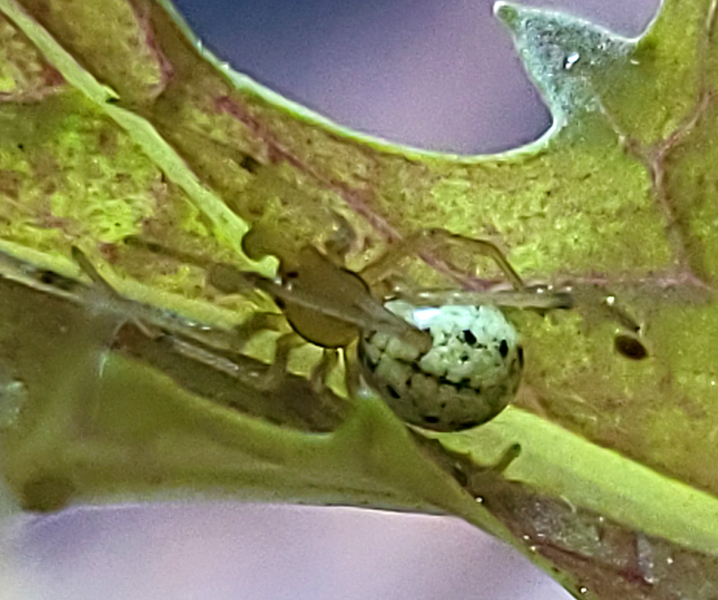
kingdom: Animalia
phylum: Arthropoda
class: Arachnida
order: Araneae
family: Theridiidae
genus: Enoplognatha
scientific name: Enoplognatha ovata
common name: Common candy-striped spider
